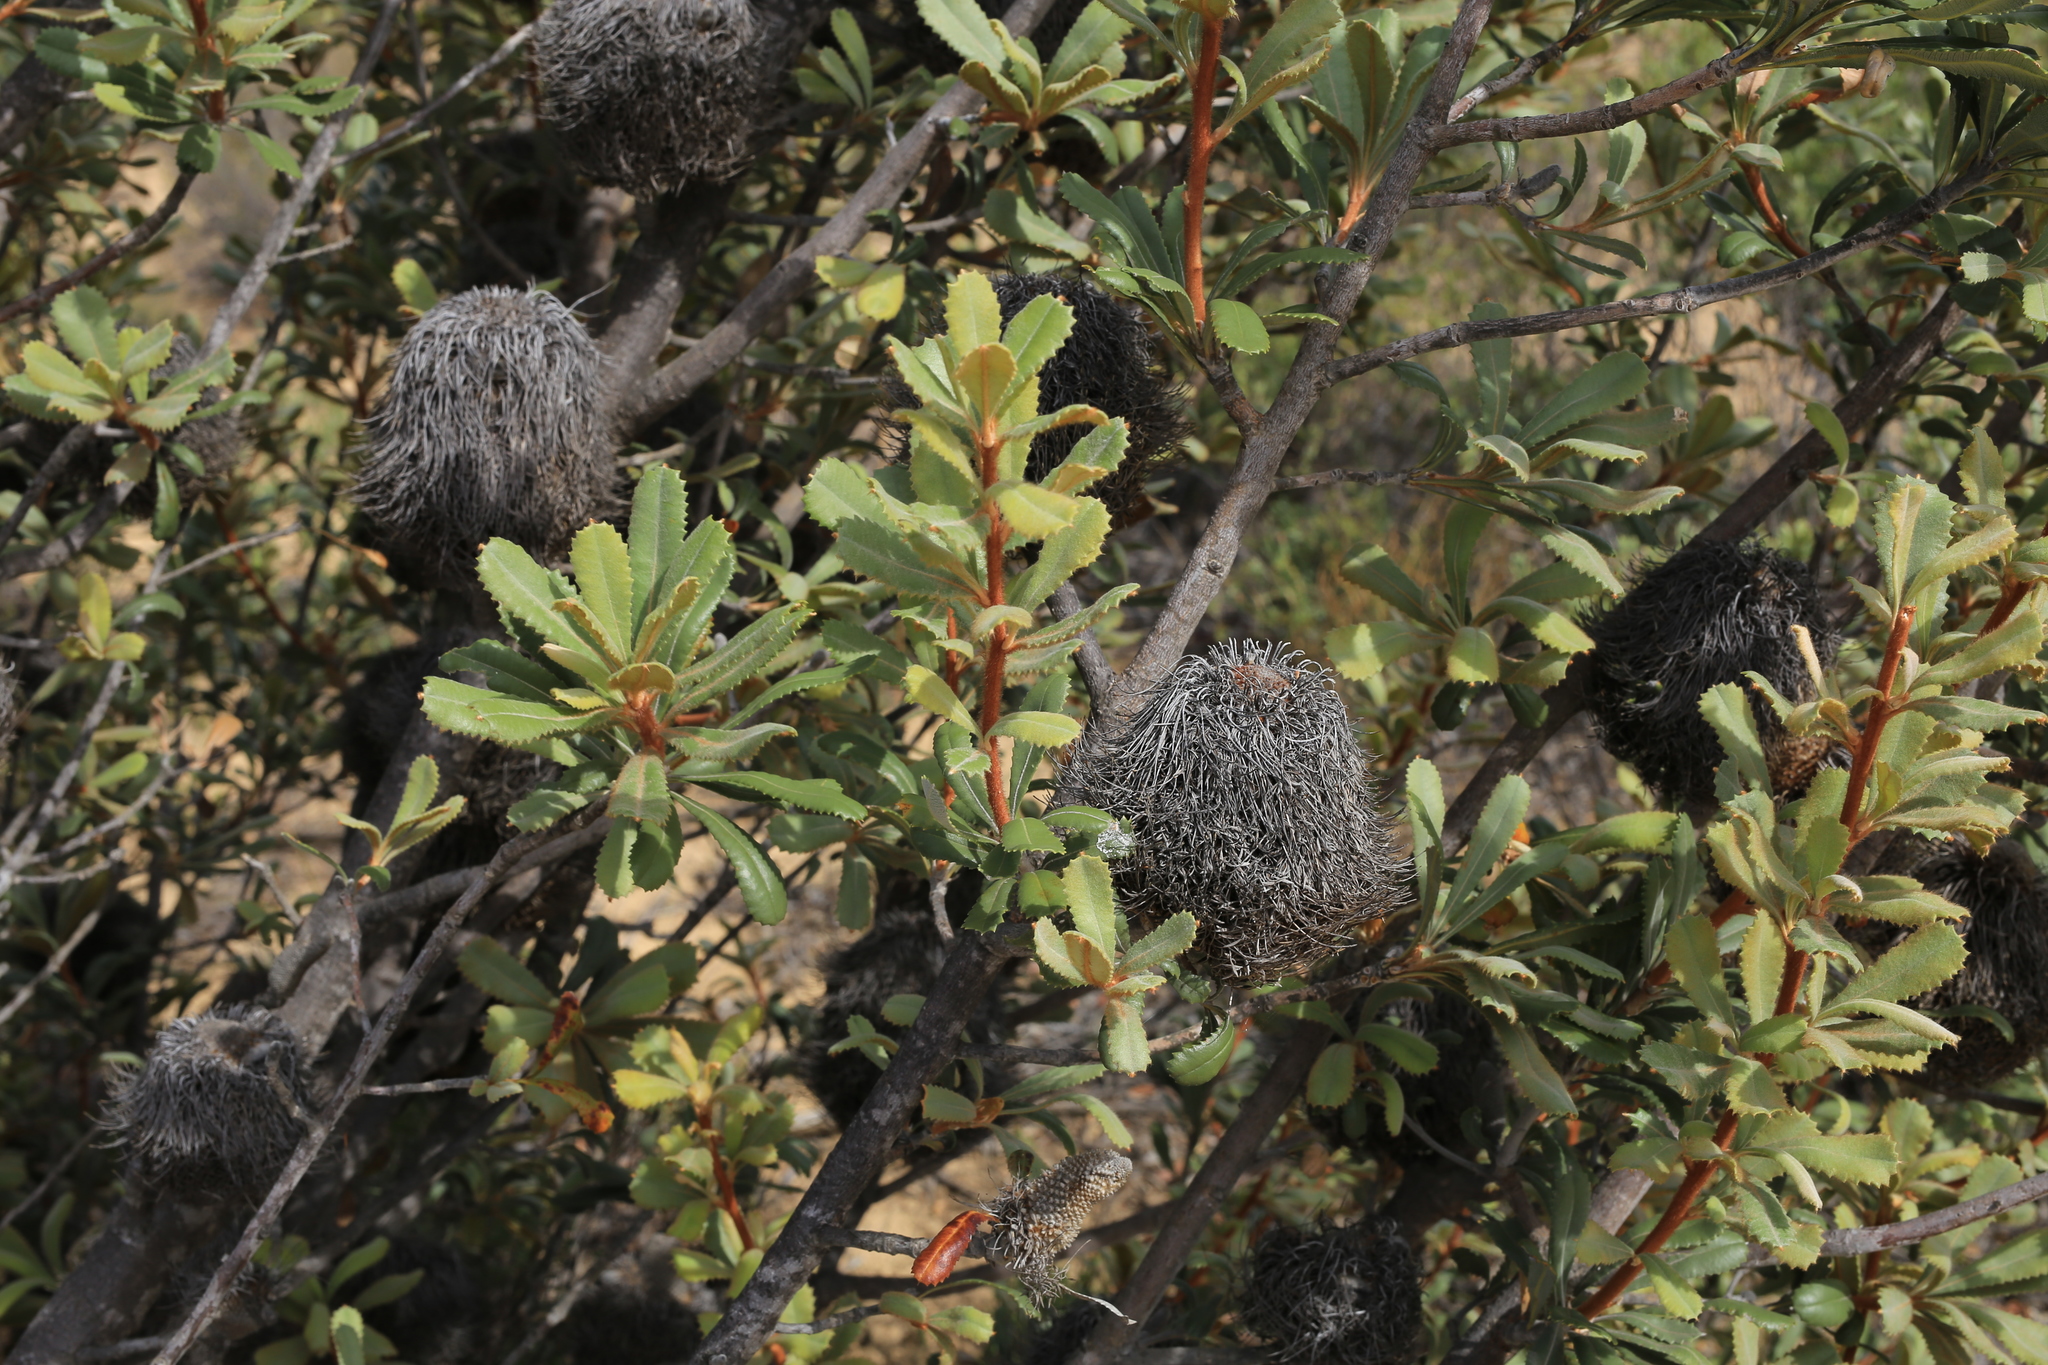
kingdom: Plantae
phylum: Tracheophyta
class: Magnoliopsida
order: Proteales
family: Proteaceae
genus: Banksia
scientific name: Banksia ornata
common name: Desert banksia
